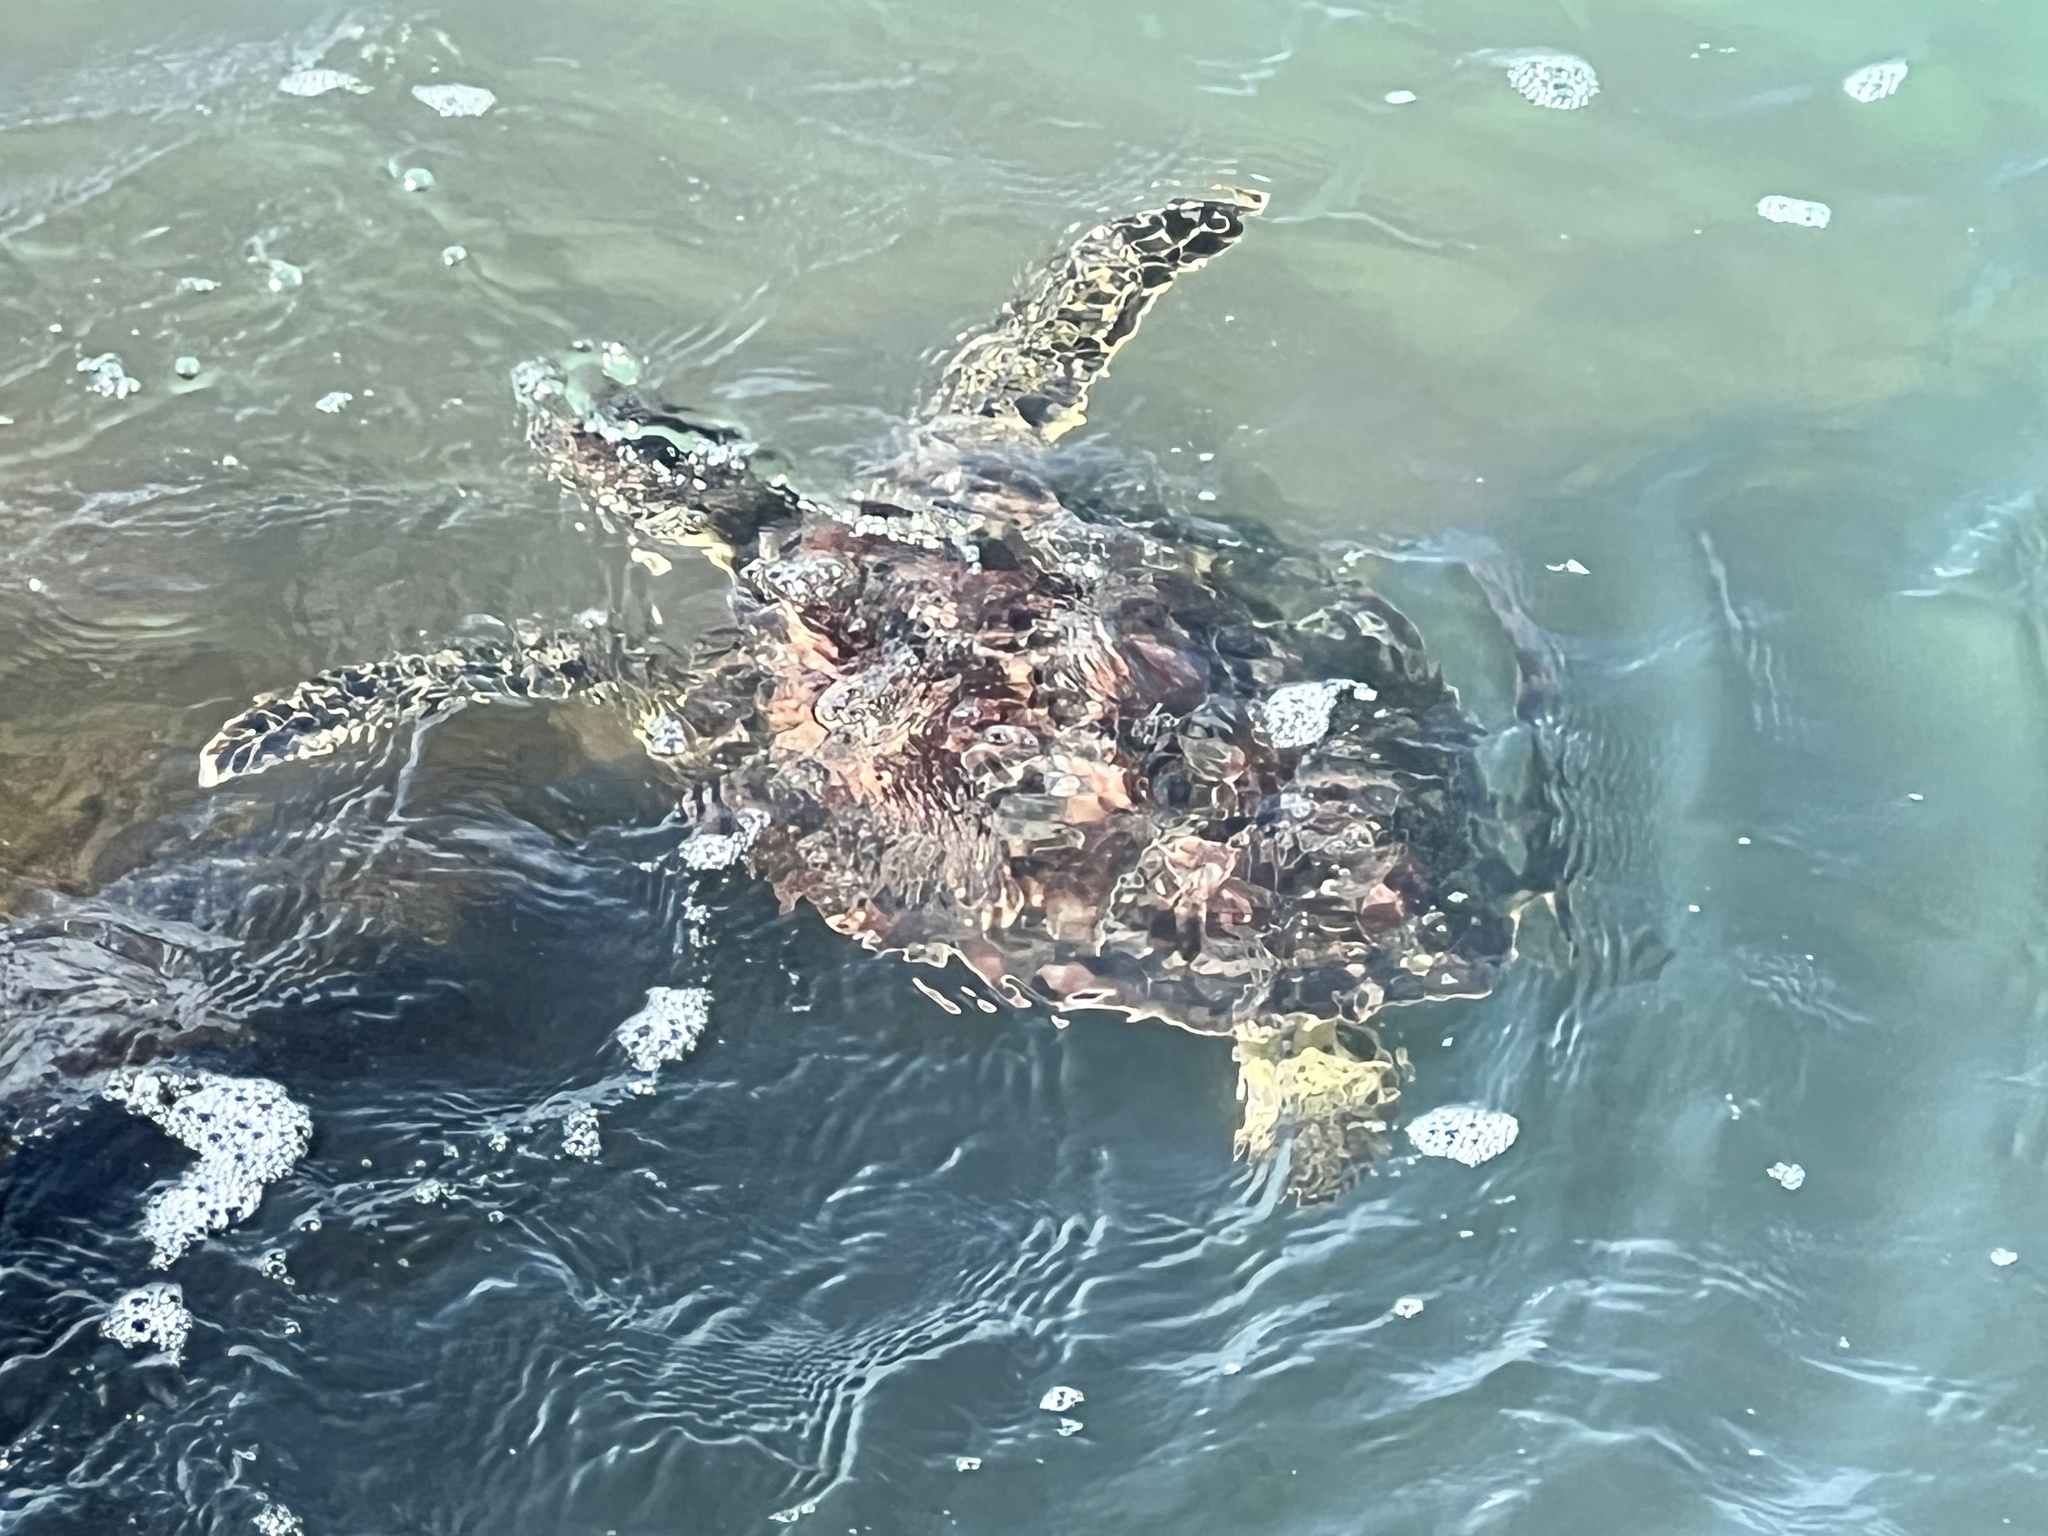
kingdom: Animalia
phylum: Chordata
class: Testudines
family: Cheloniidae
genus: Chelonia
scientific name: Chelonia mydas
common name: Green turtle
